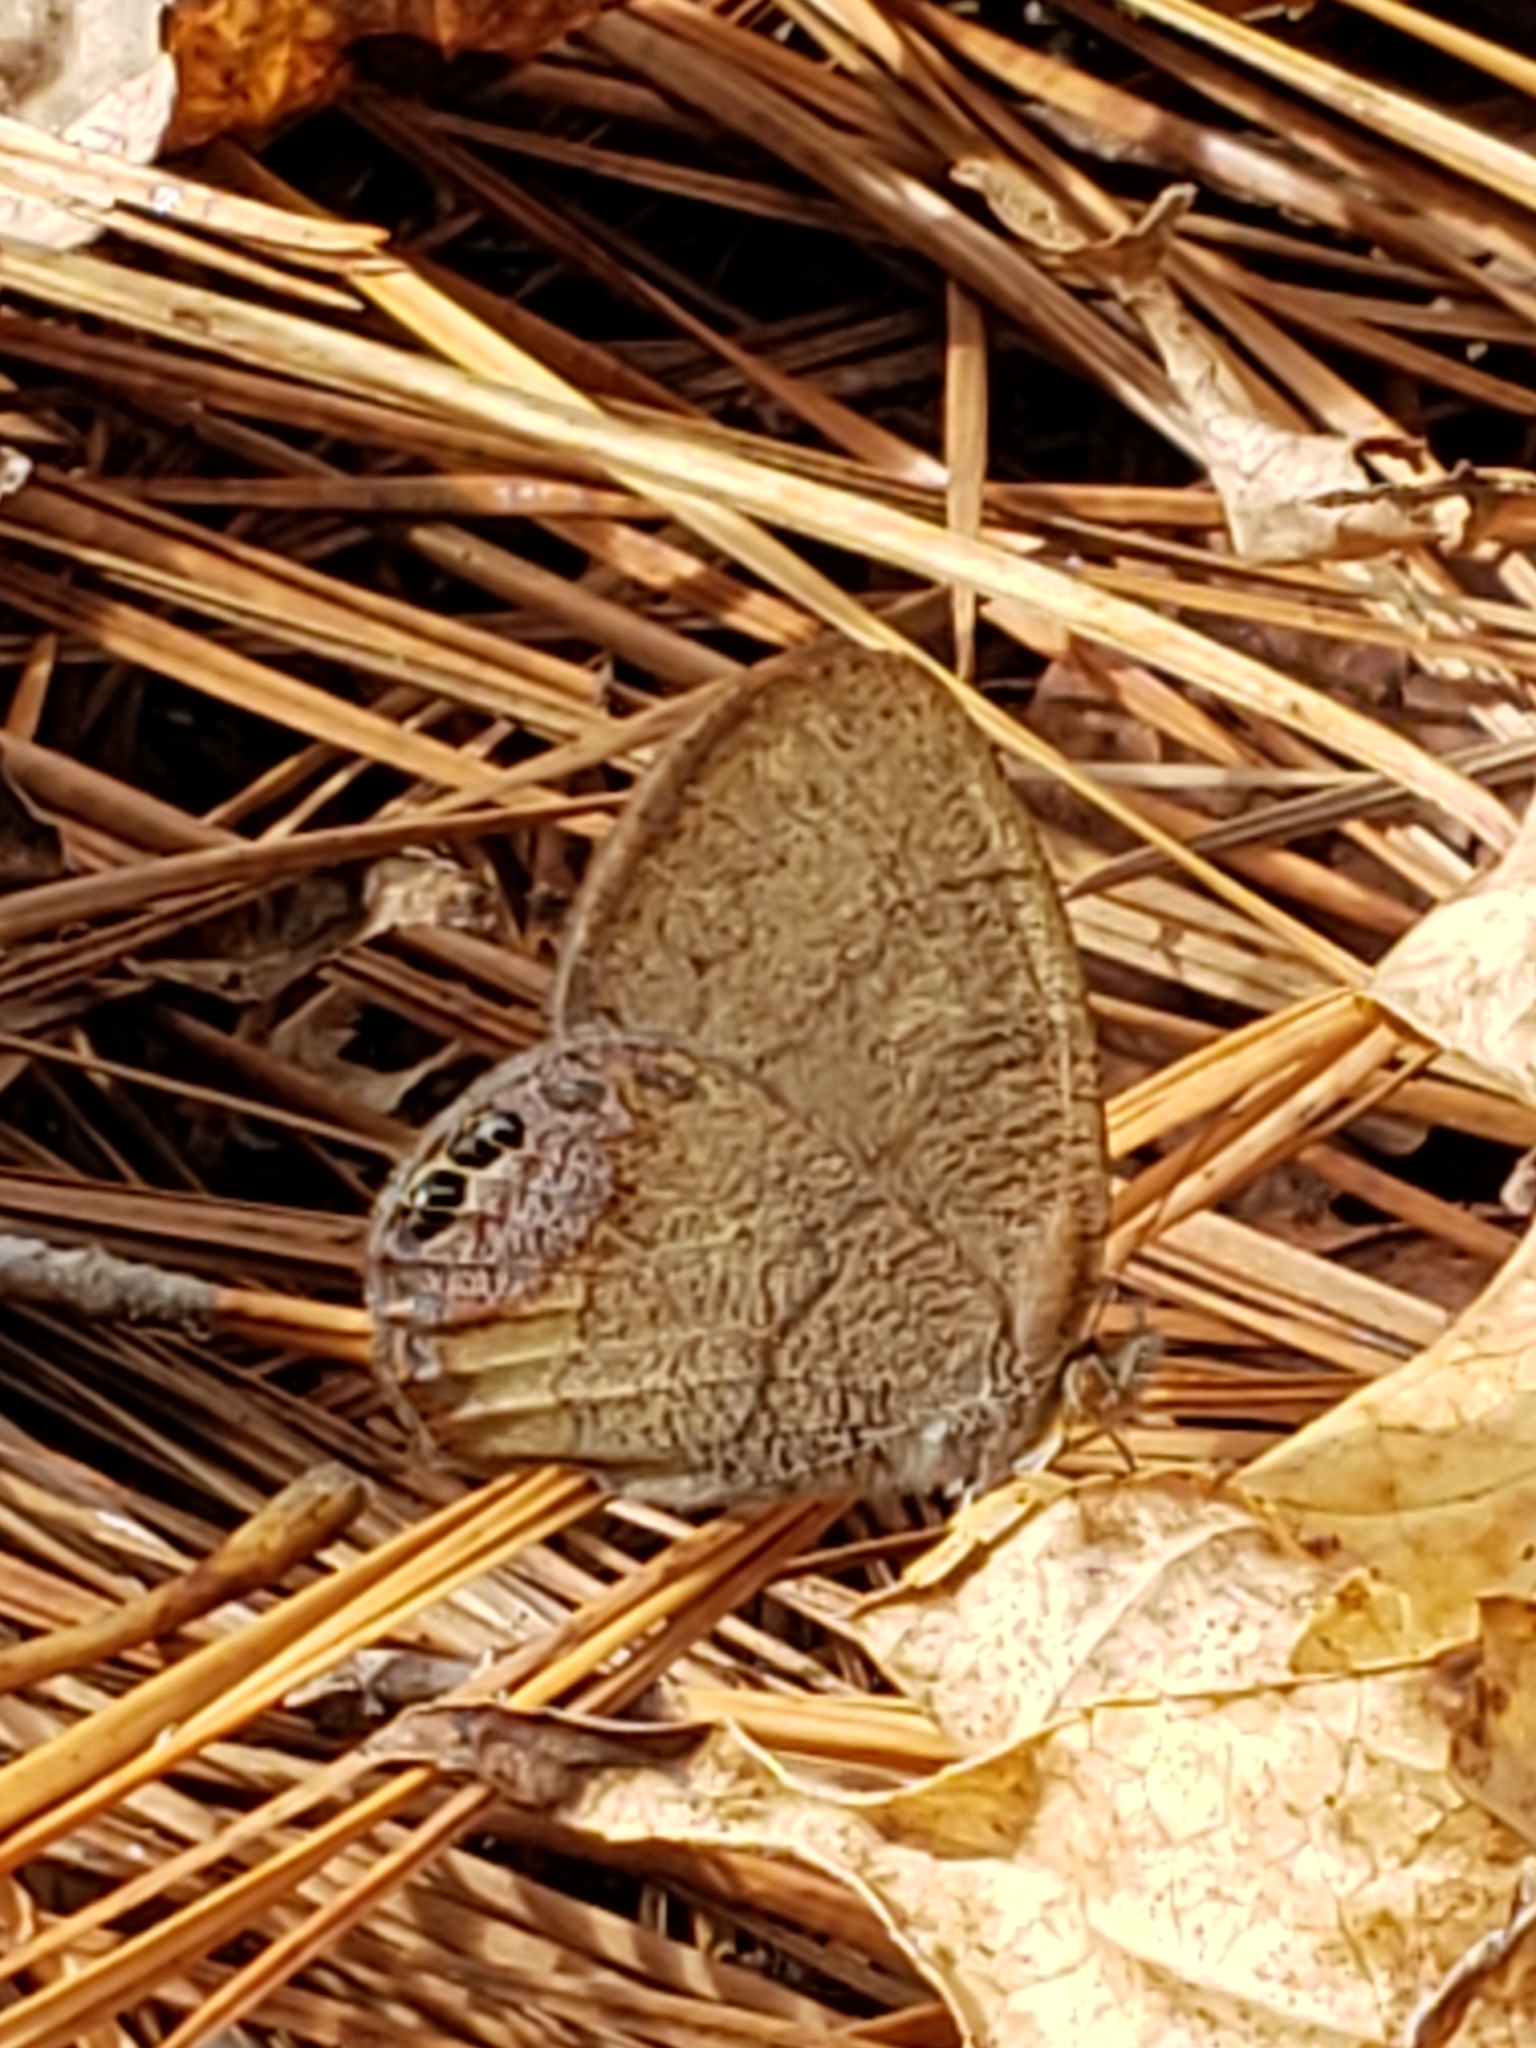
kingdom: Animalia
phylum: Arthropoda
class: Insecta
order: Lepidoptera
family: Nymphalidae
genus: Euptychia
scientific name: Euptychia cornelius
